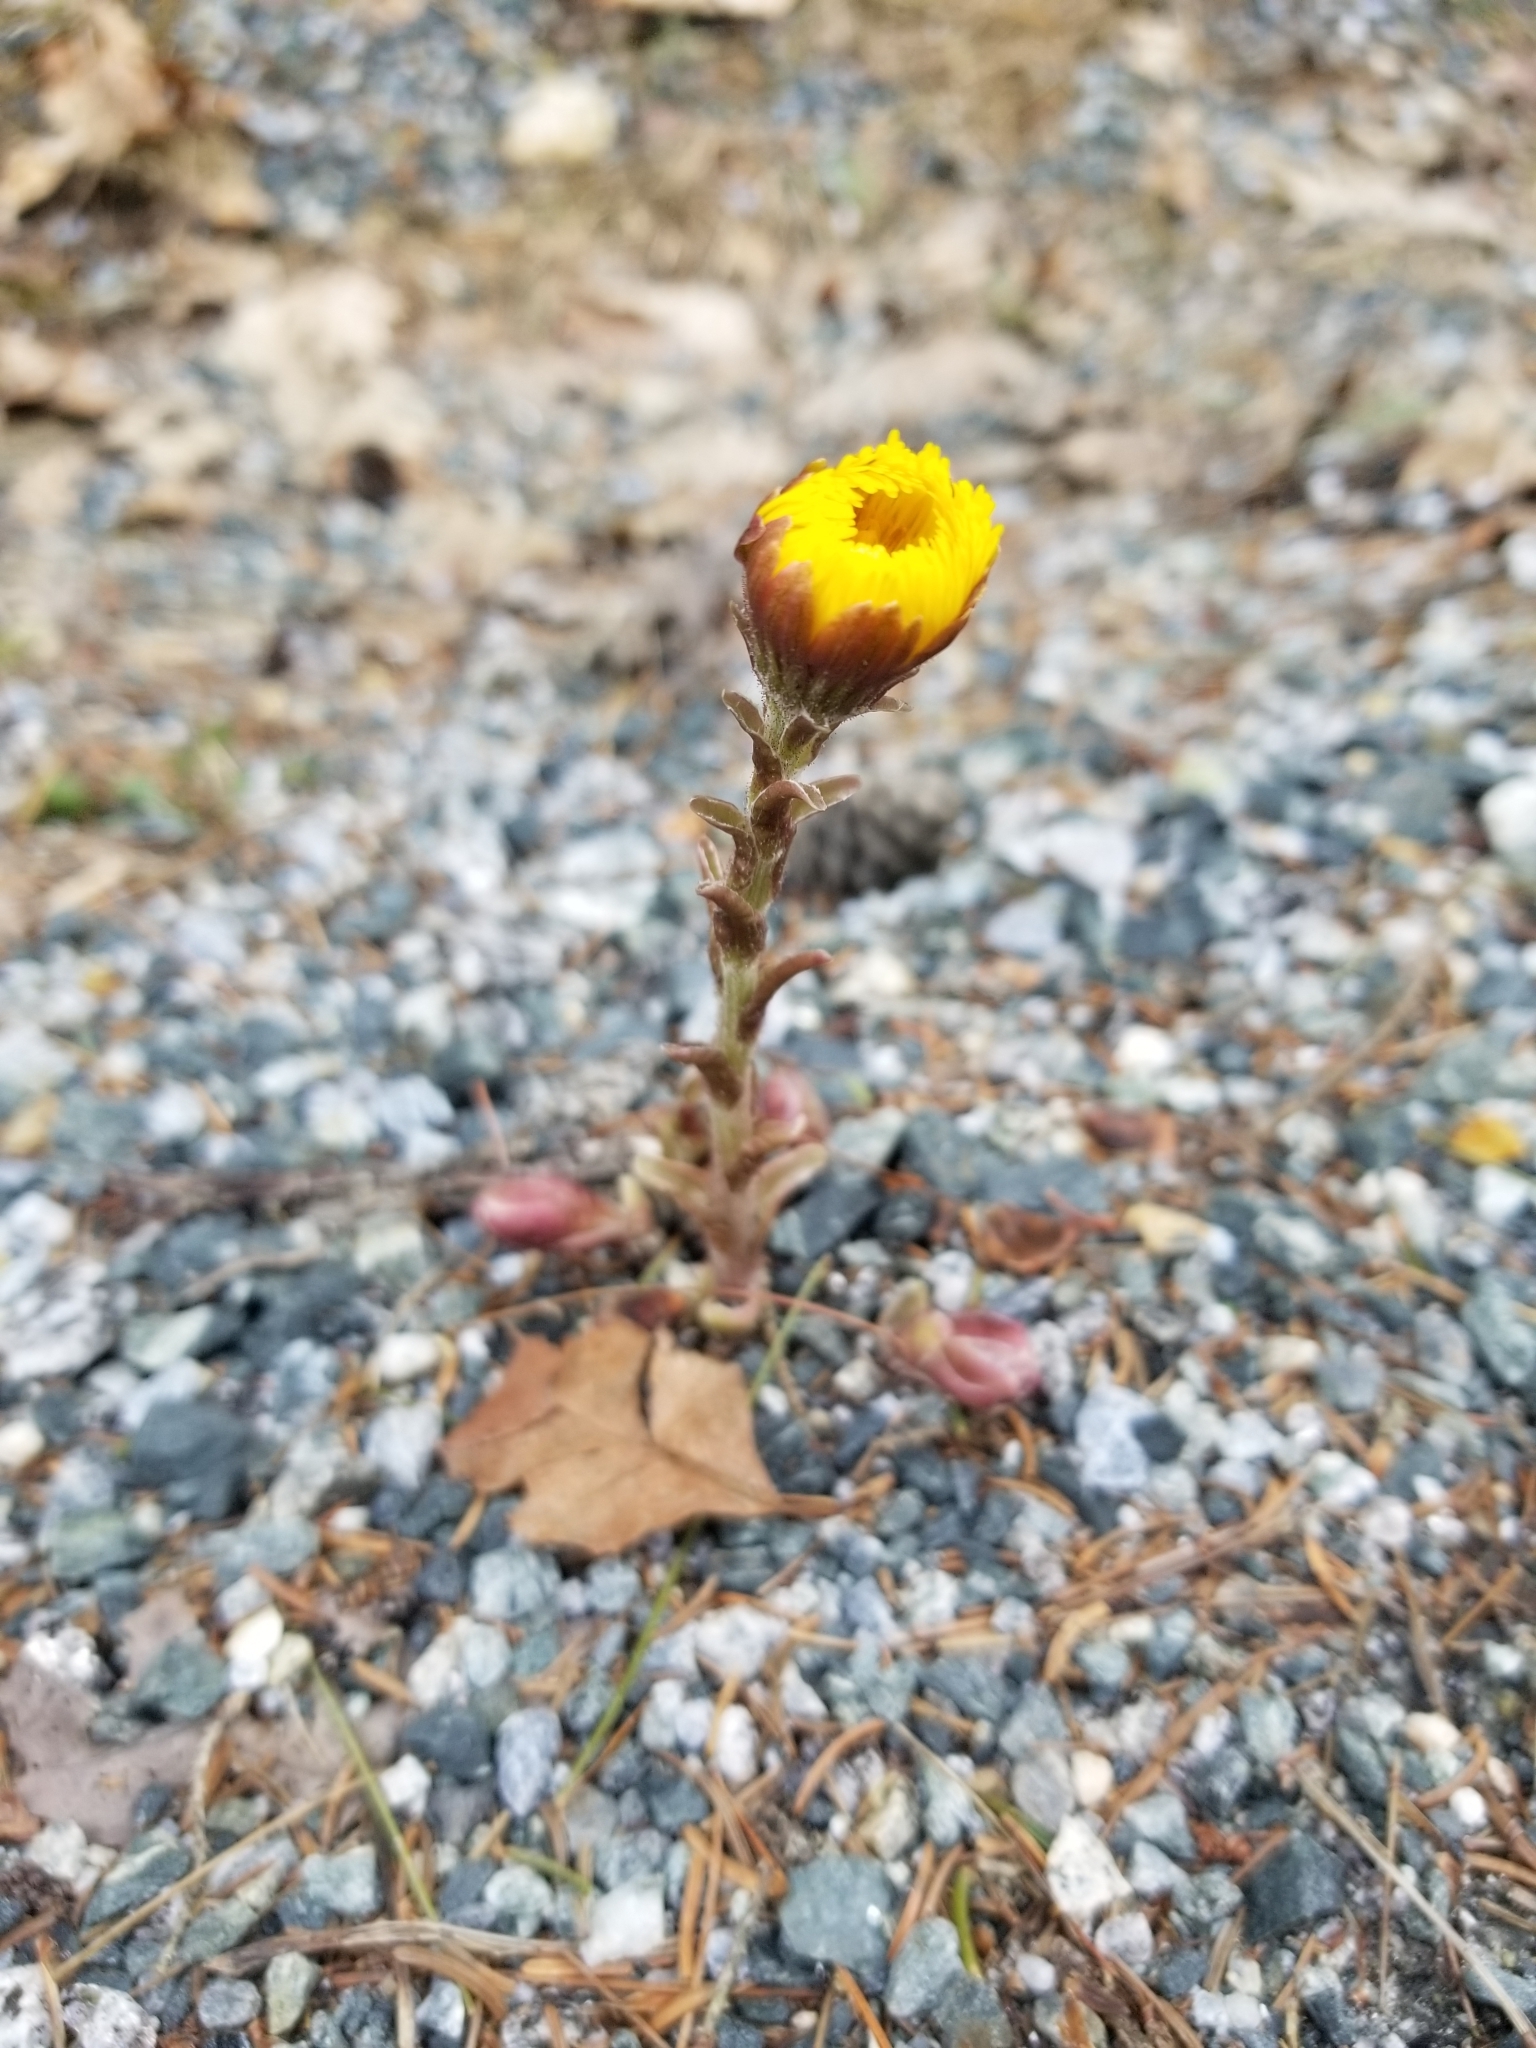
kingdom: Plantae
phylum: Tracheophyta
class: Magnoliopsida
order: Asterales
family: Asteraceae
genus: Tussilago
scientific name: Tussilago farfara
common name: Coltsfoot
